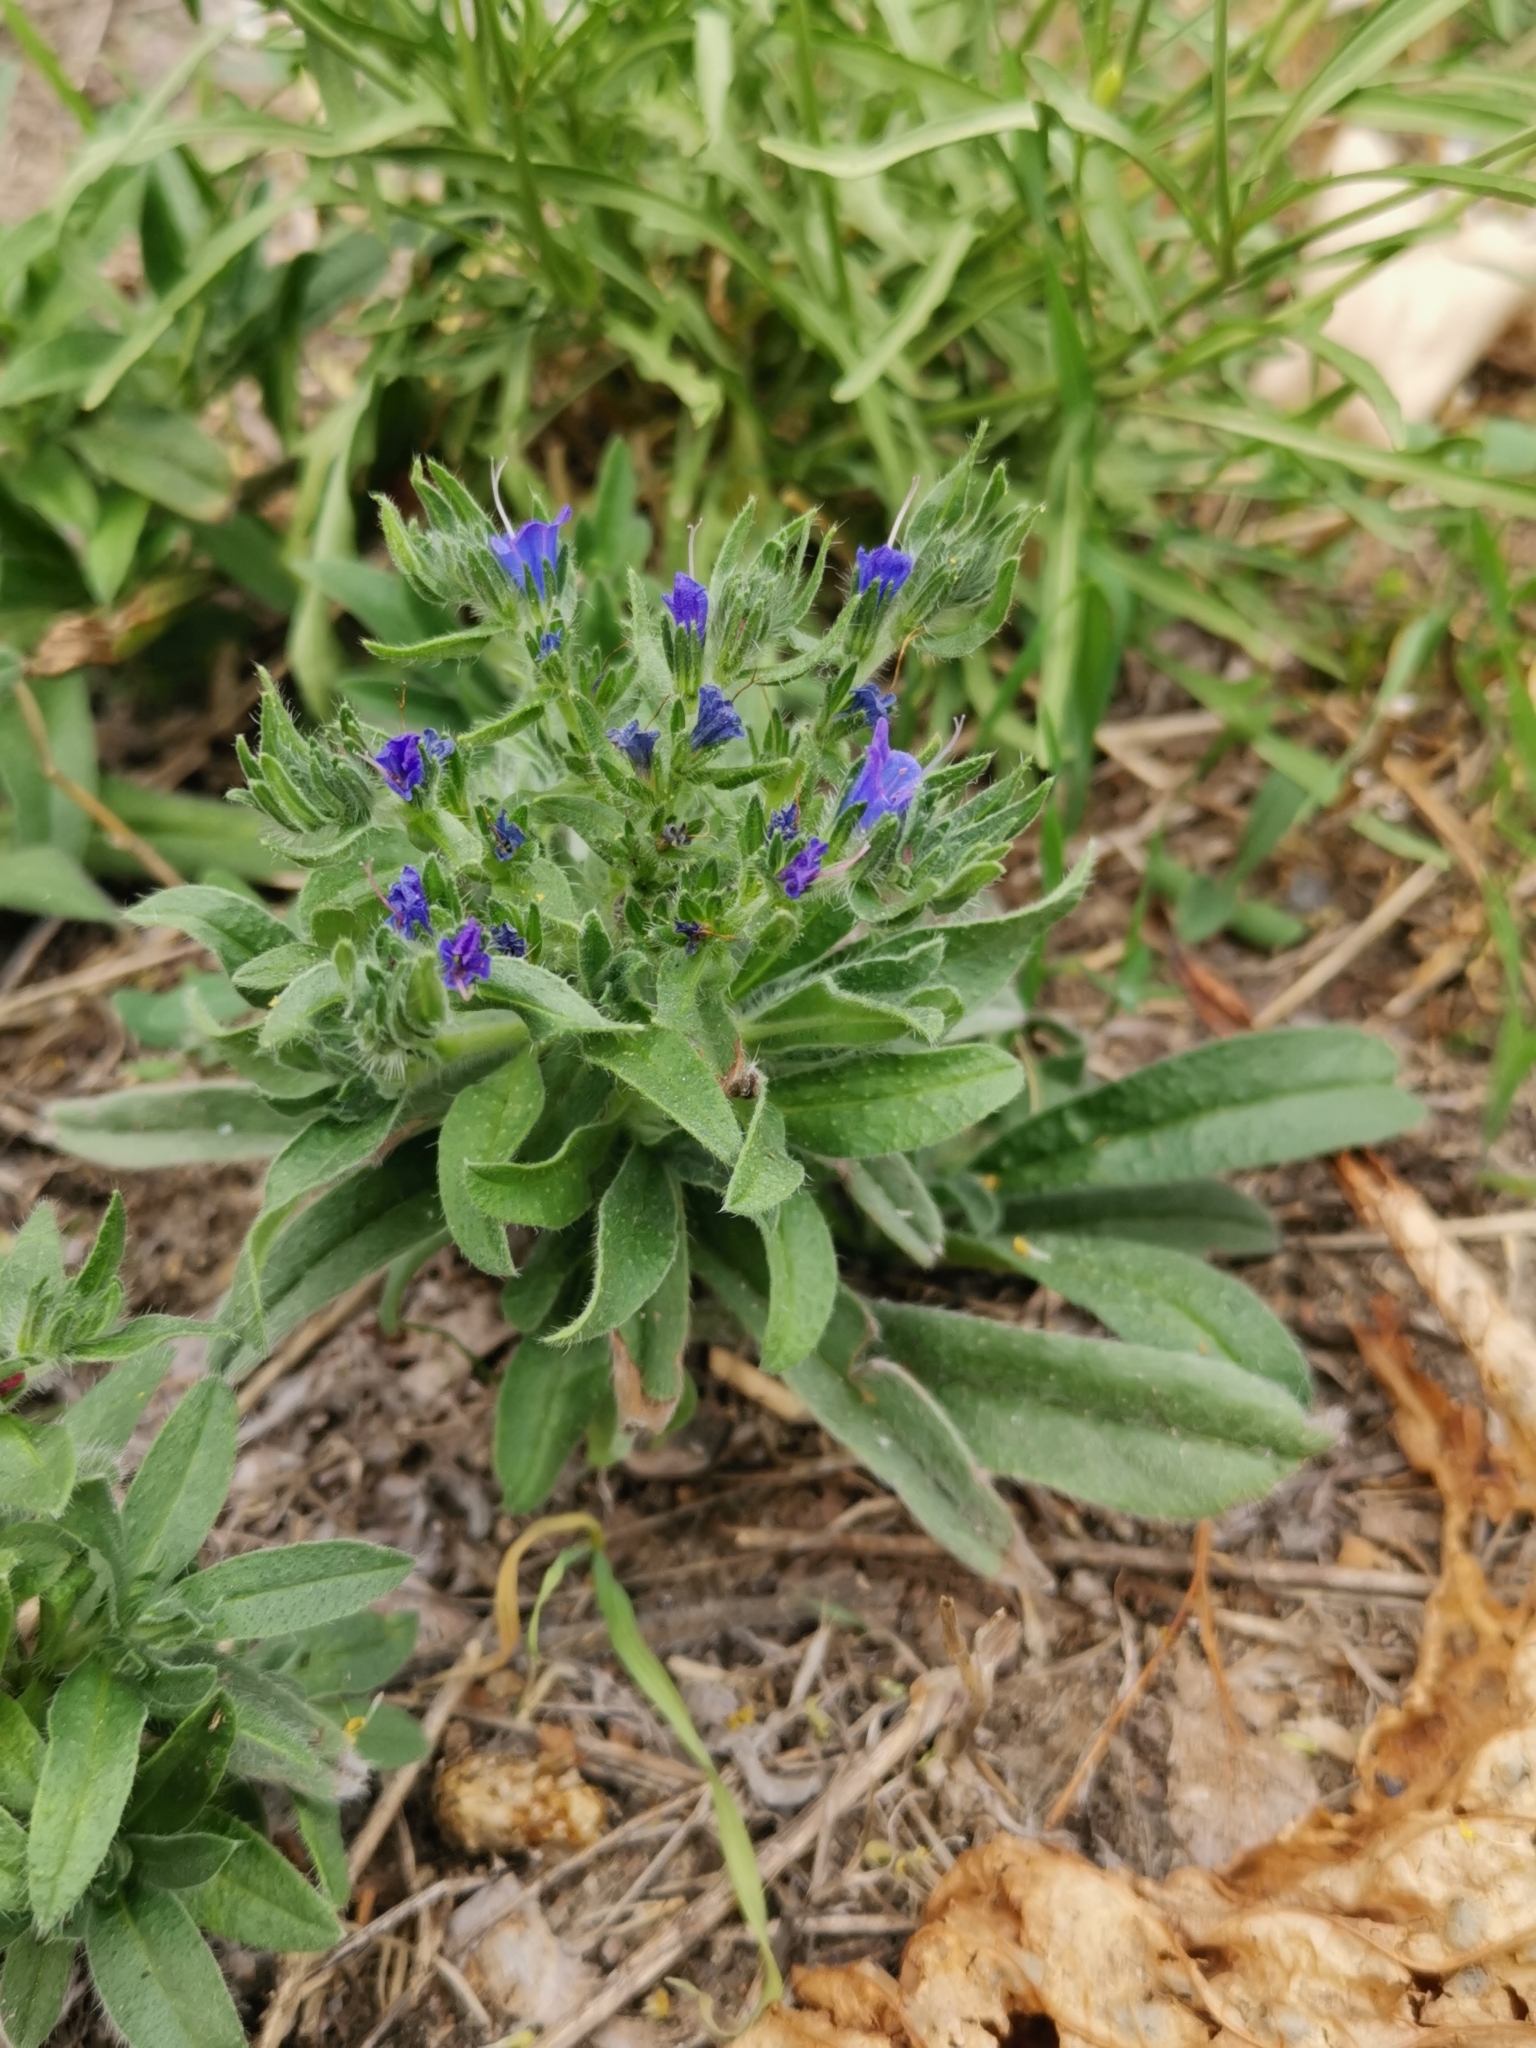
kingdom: Plantae
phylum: Tracheophyta
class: Magnoliopsida
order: Boraginales
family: Boraginaceae
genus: Echium
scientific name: Echium vulgare
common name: Common viper's bugloss
